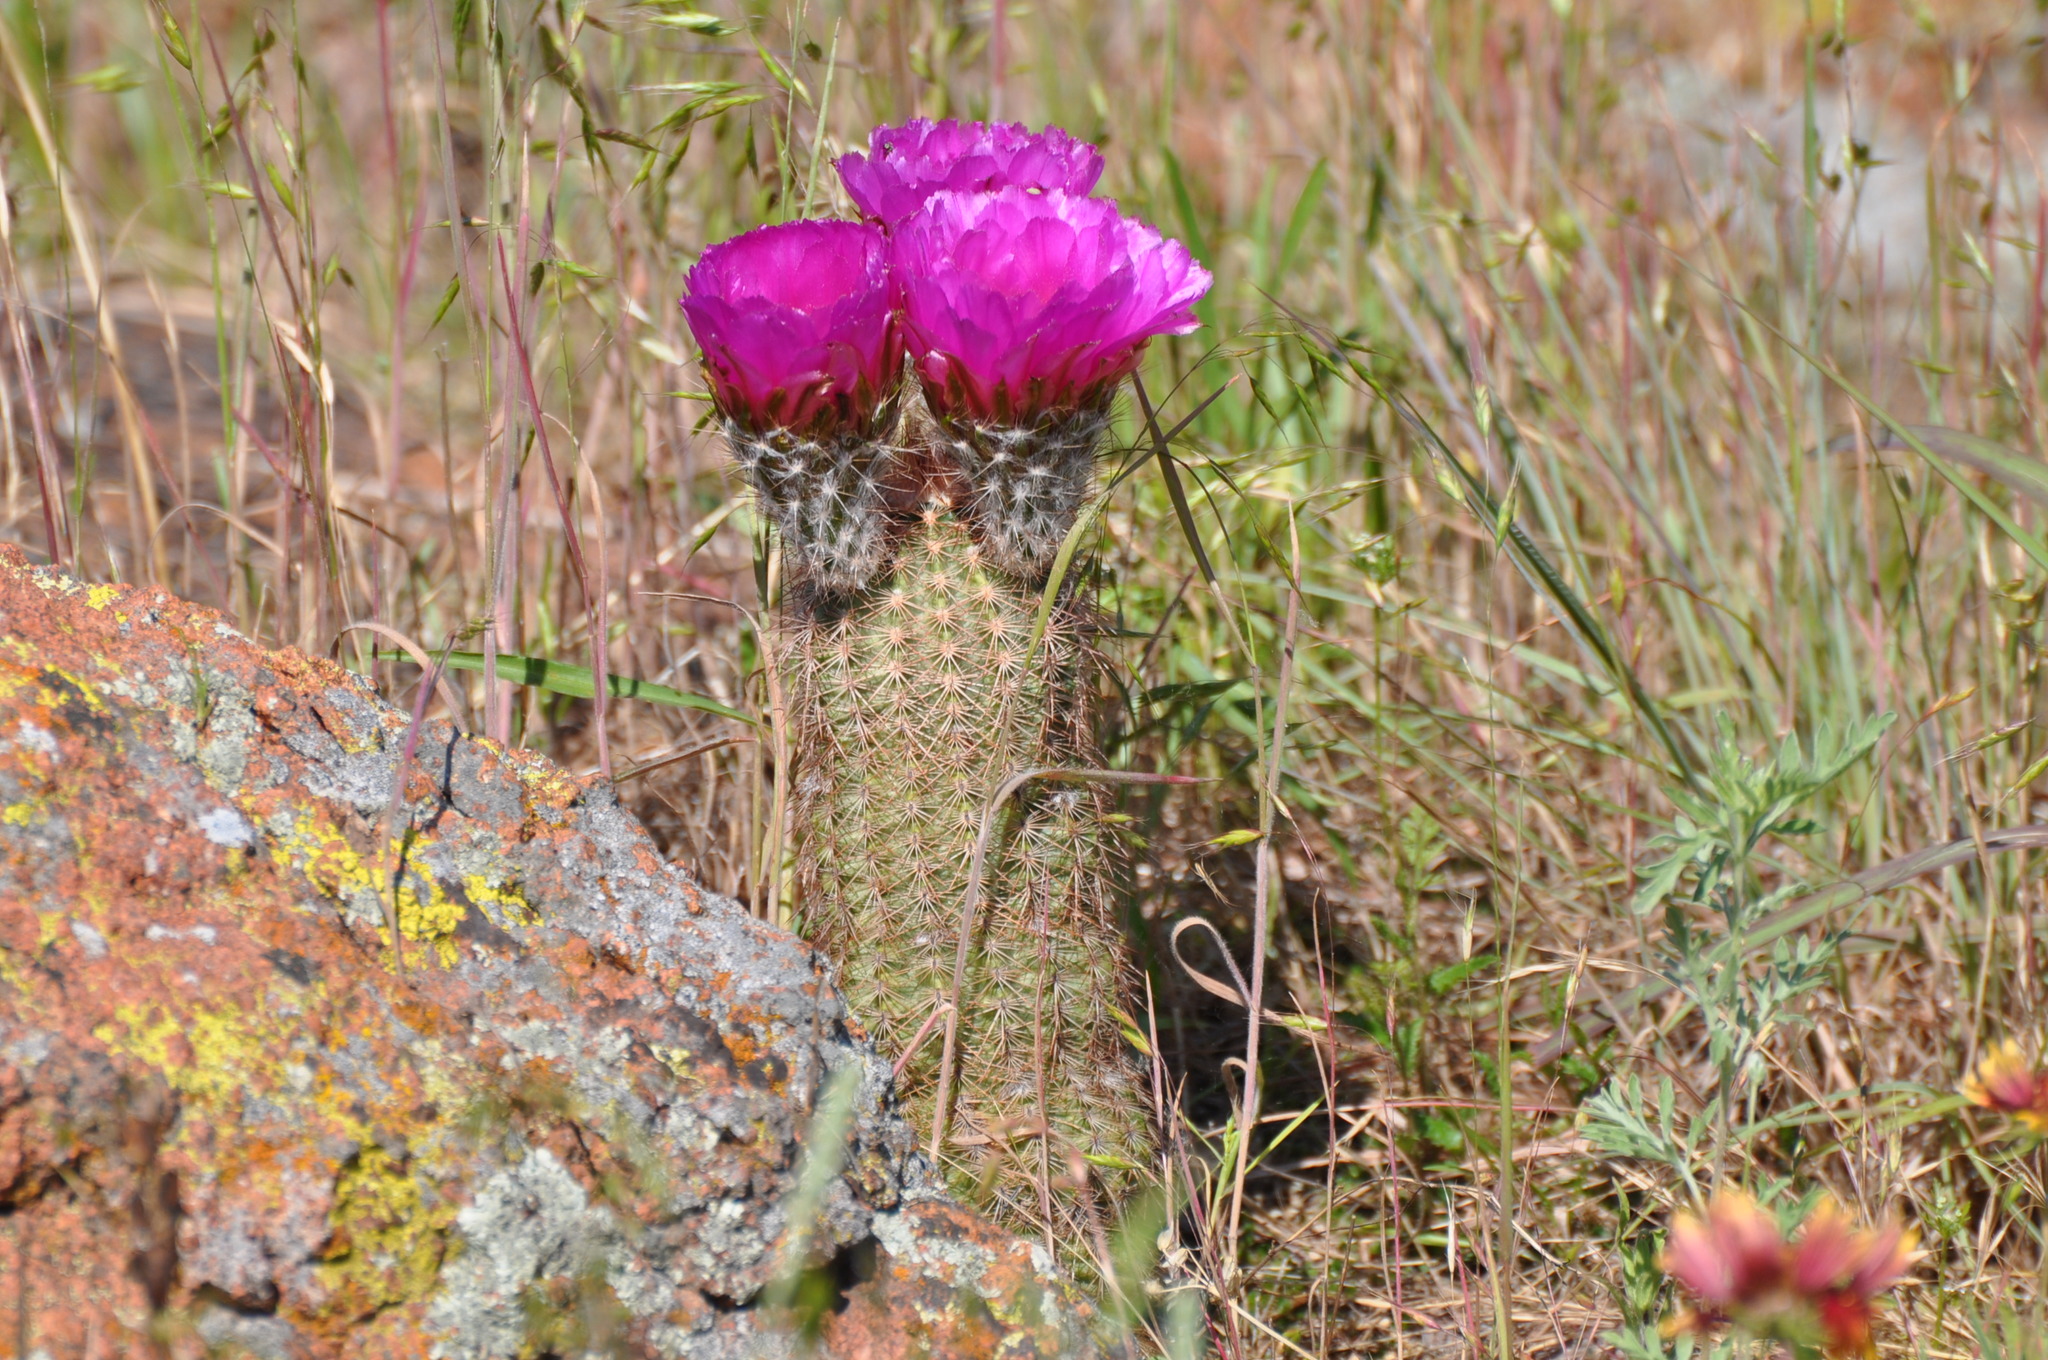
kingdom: Plantae
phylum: Tracheophyta
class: Magnoliopsida
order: Caryophyllales
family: Cactaceae
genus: Echinocereus
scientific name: Echinocereus reichenbachii
